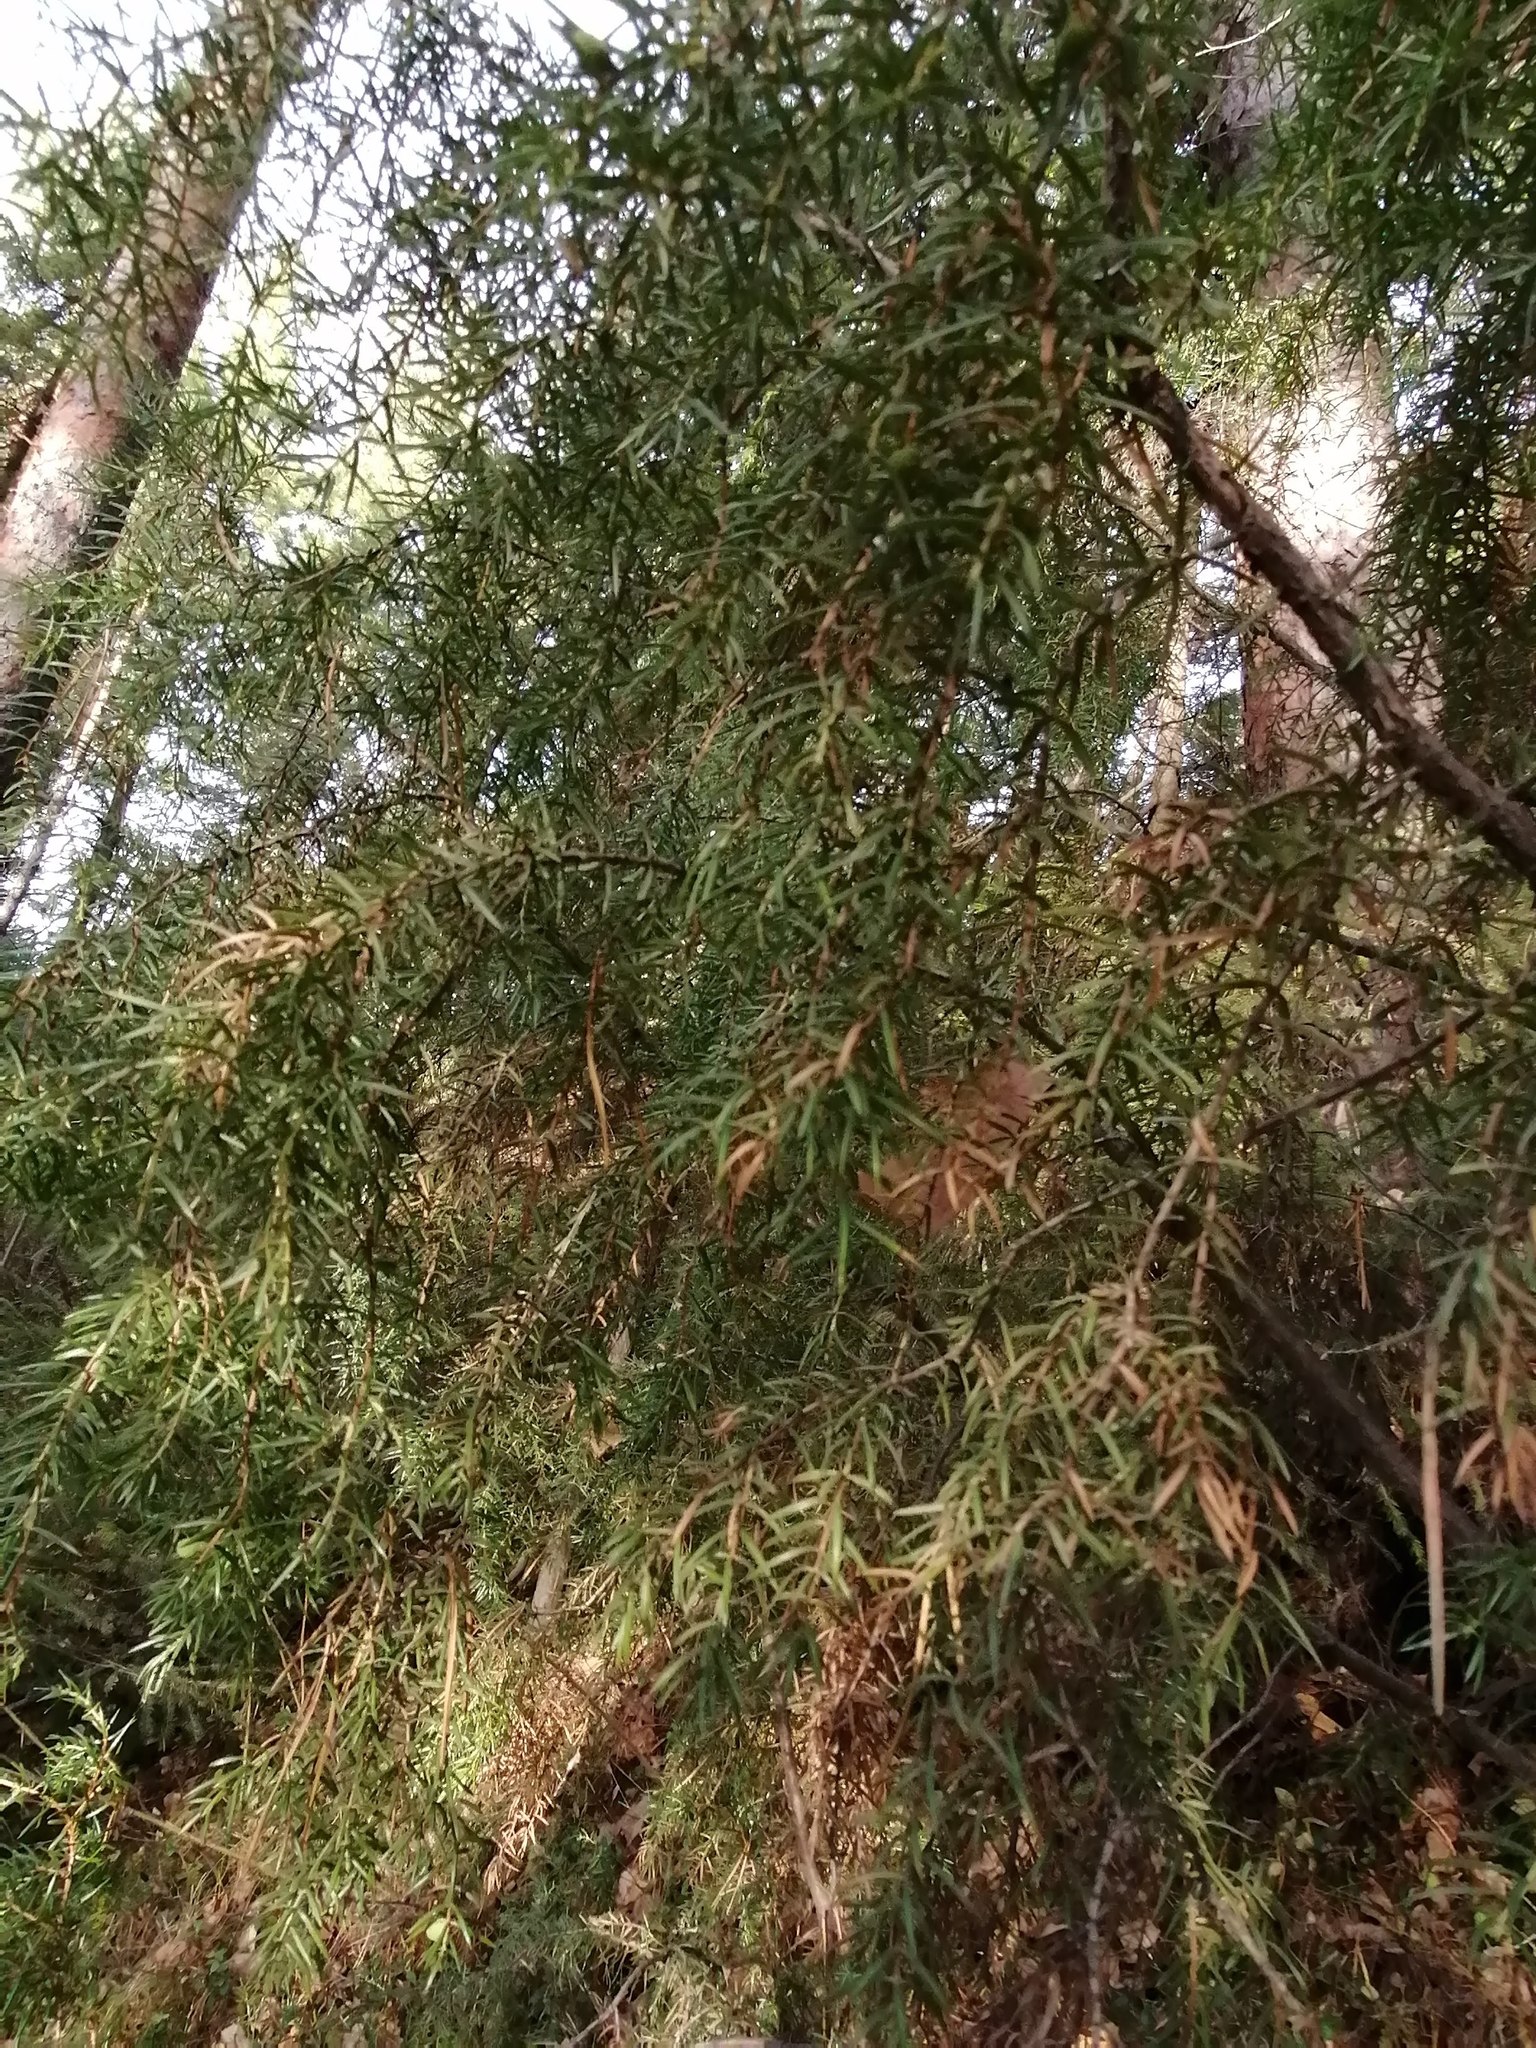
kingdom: Plantae
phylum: Tracheophyta
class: Pinopsida
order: Pinales
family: Cupressaceae
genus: Juniperus
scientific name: Juniperus communis
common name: Common juniper
